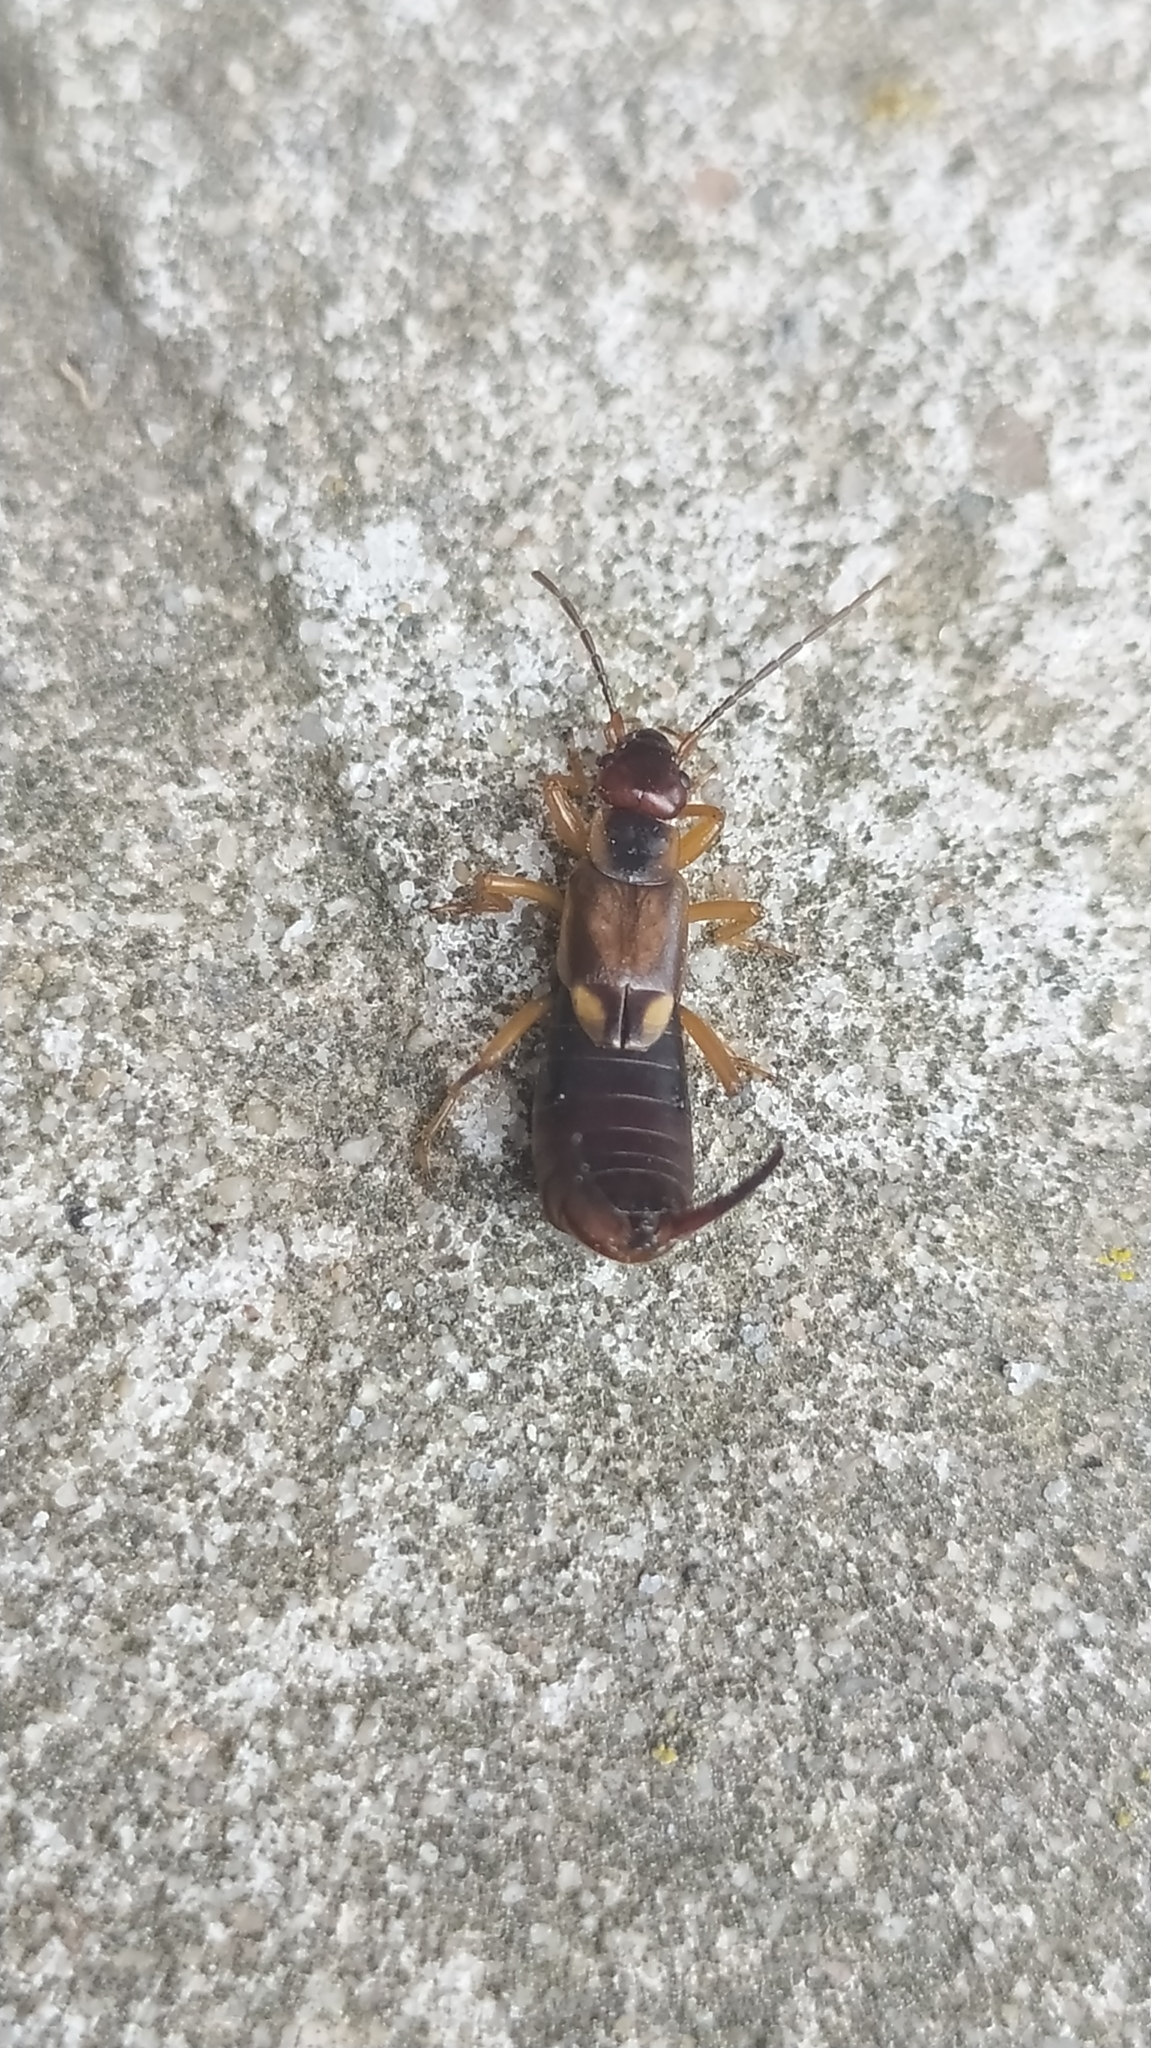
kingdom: Animalia
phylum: Arthropoda
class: Insecta
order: Dermaptera
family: Forficulidae
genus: Forficula
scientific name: Forficula
